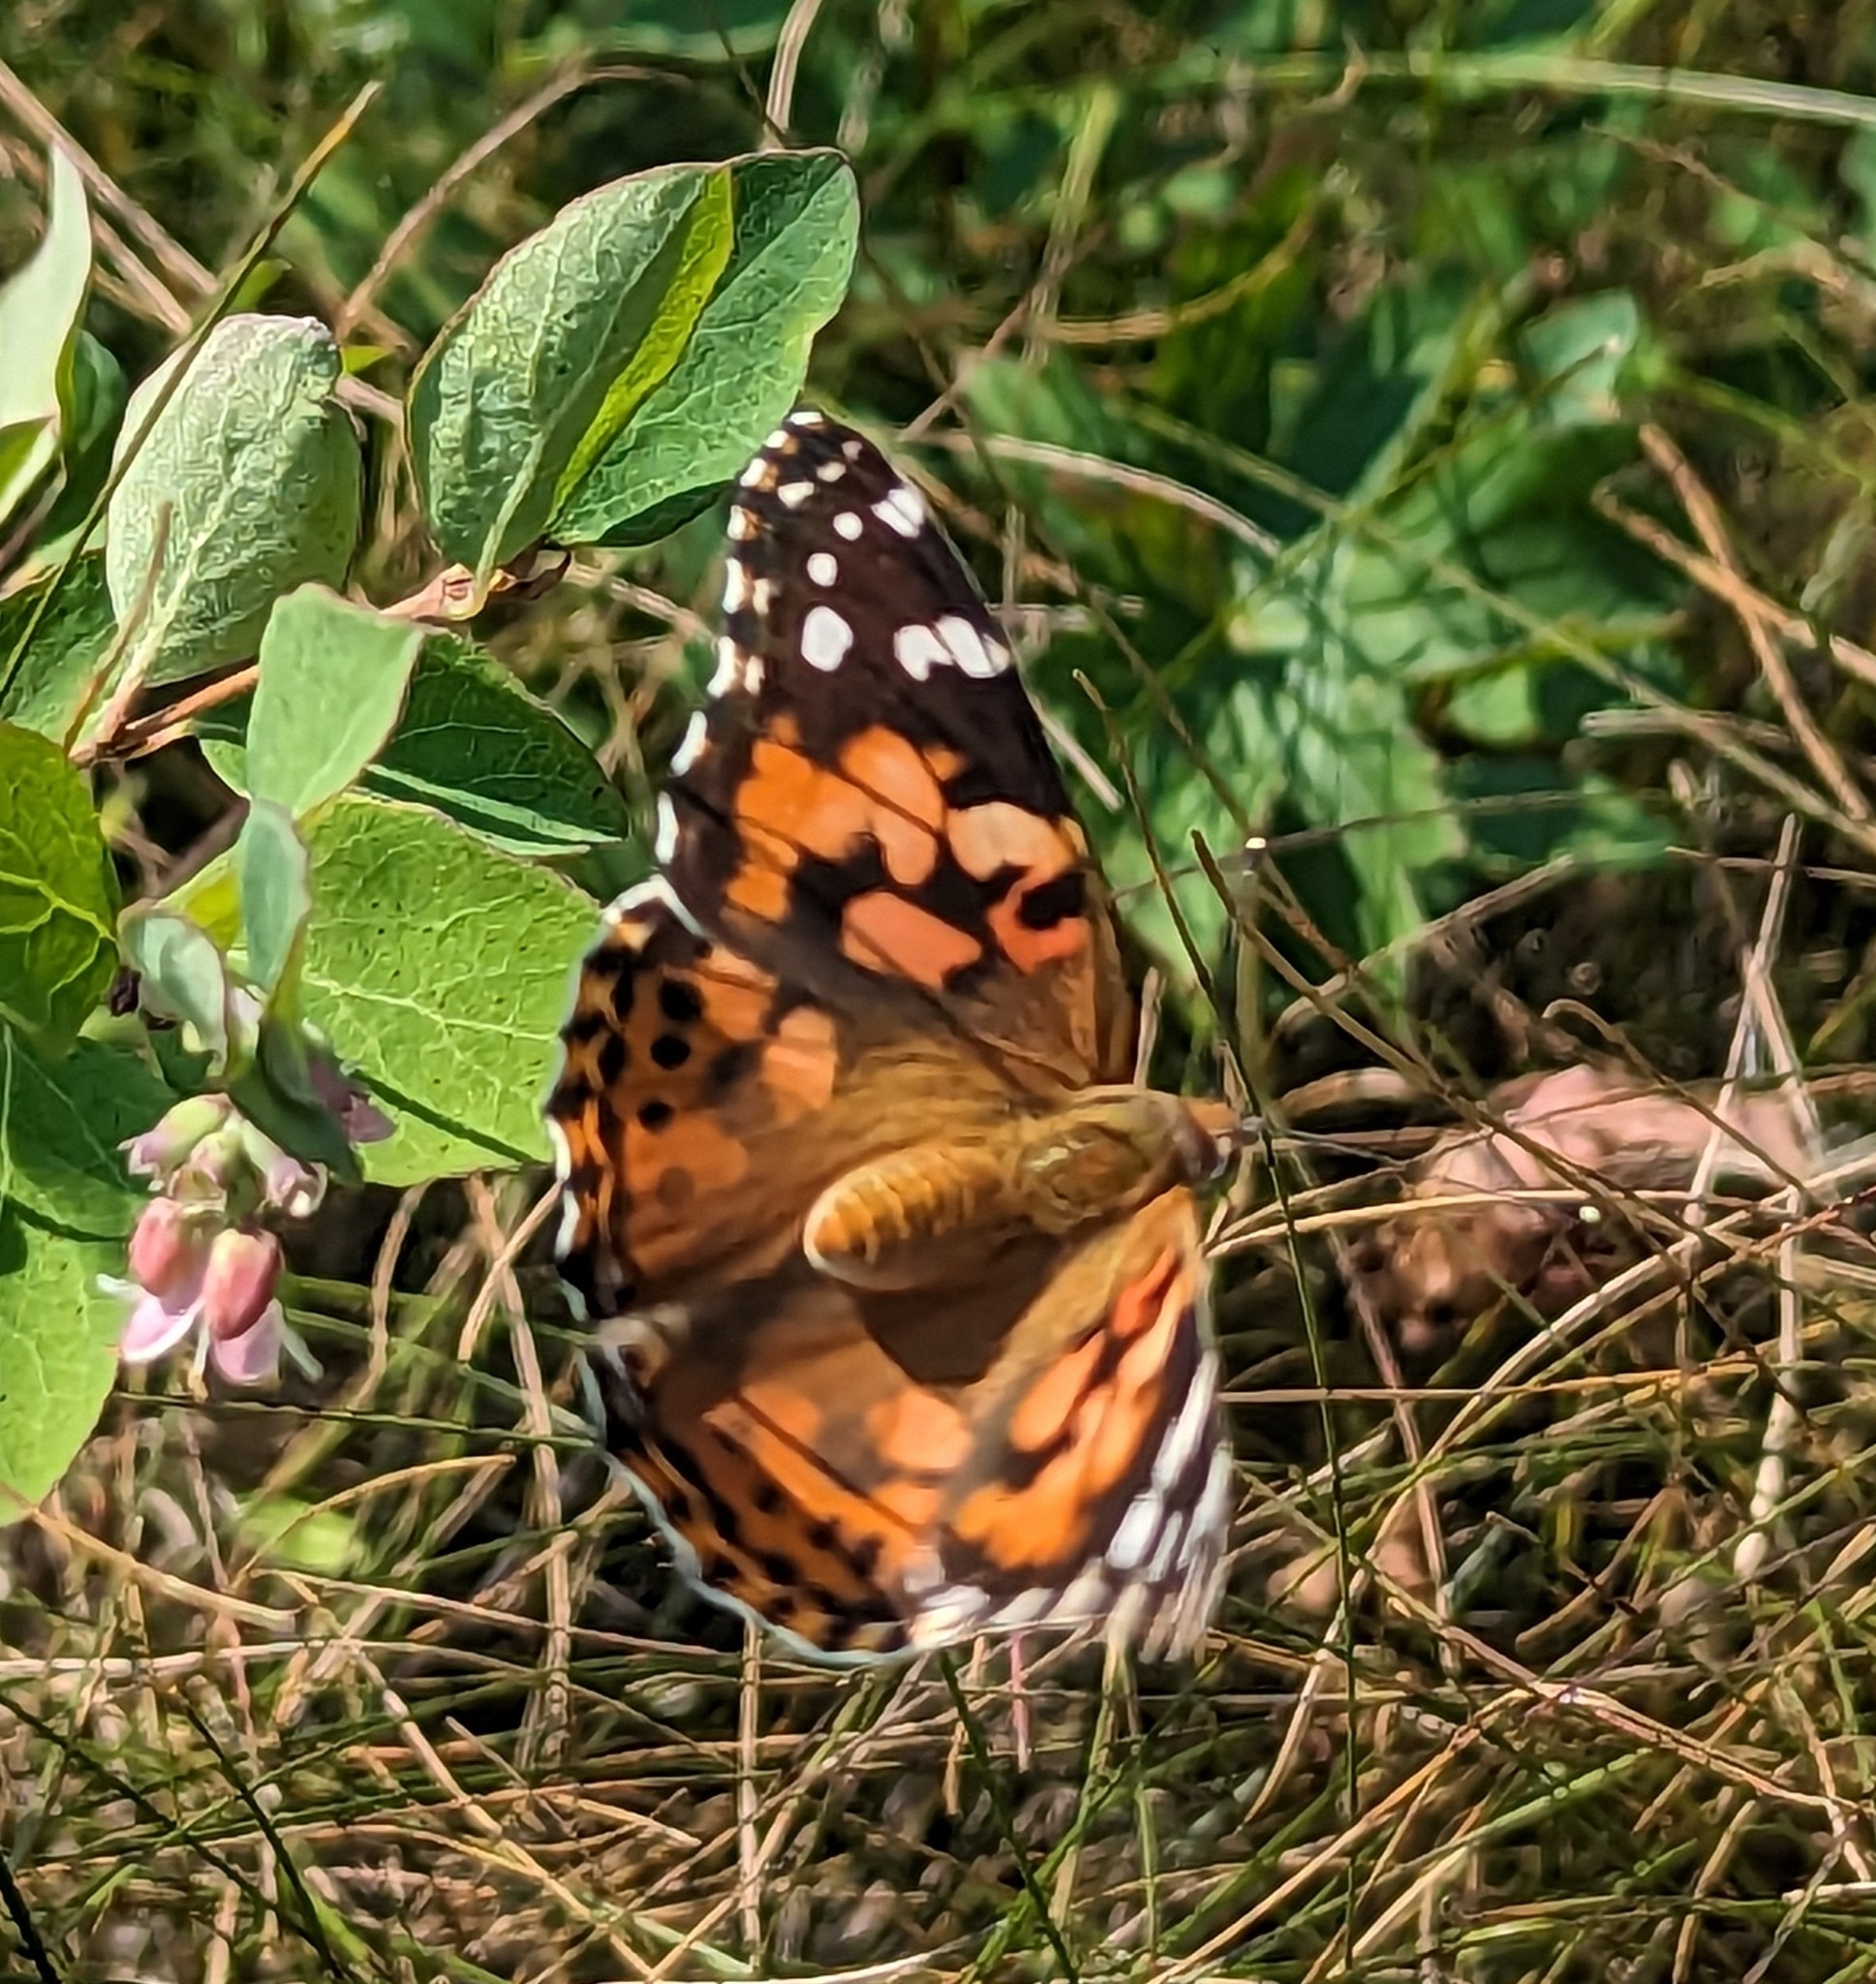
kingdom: Animalia
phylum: Arthropoda
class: Insecta
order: Lepidoptera
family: Nymphalidae
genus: Vanessa
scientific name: Vanessa cardui
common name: Painted lady
